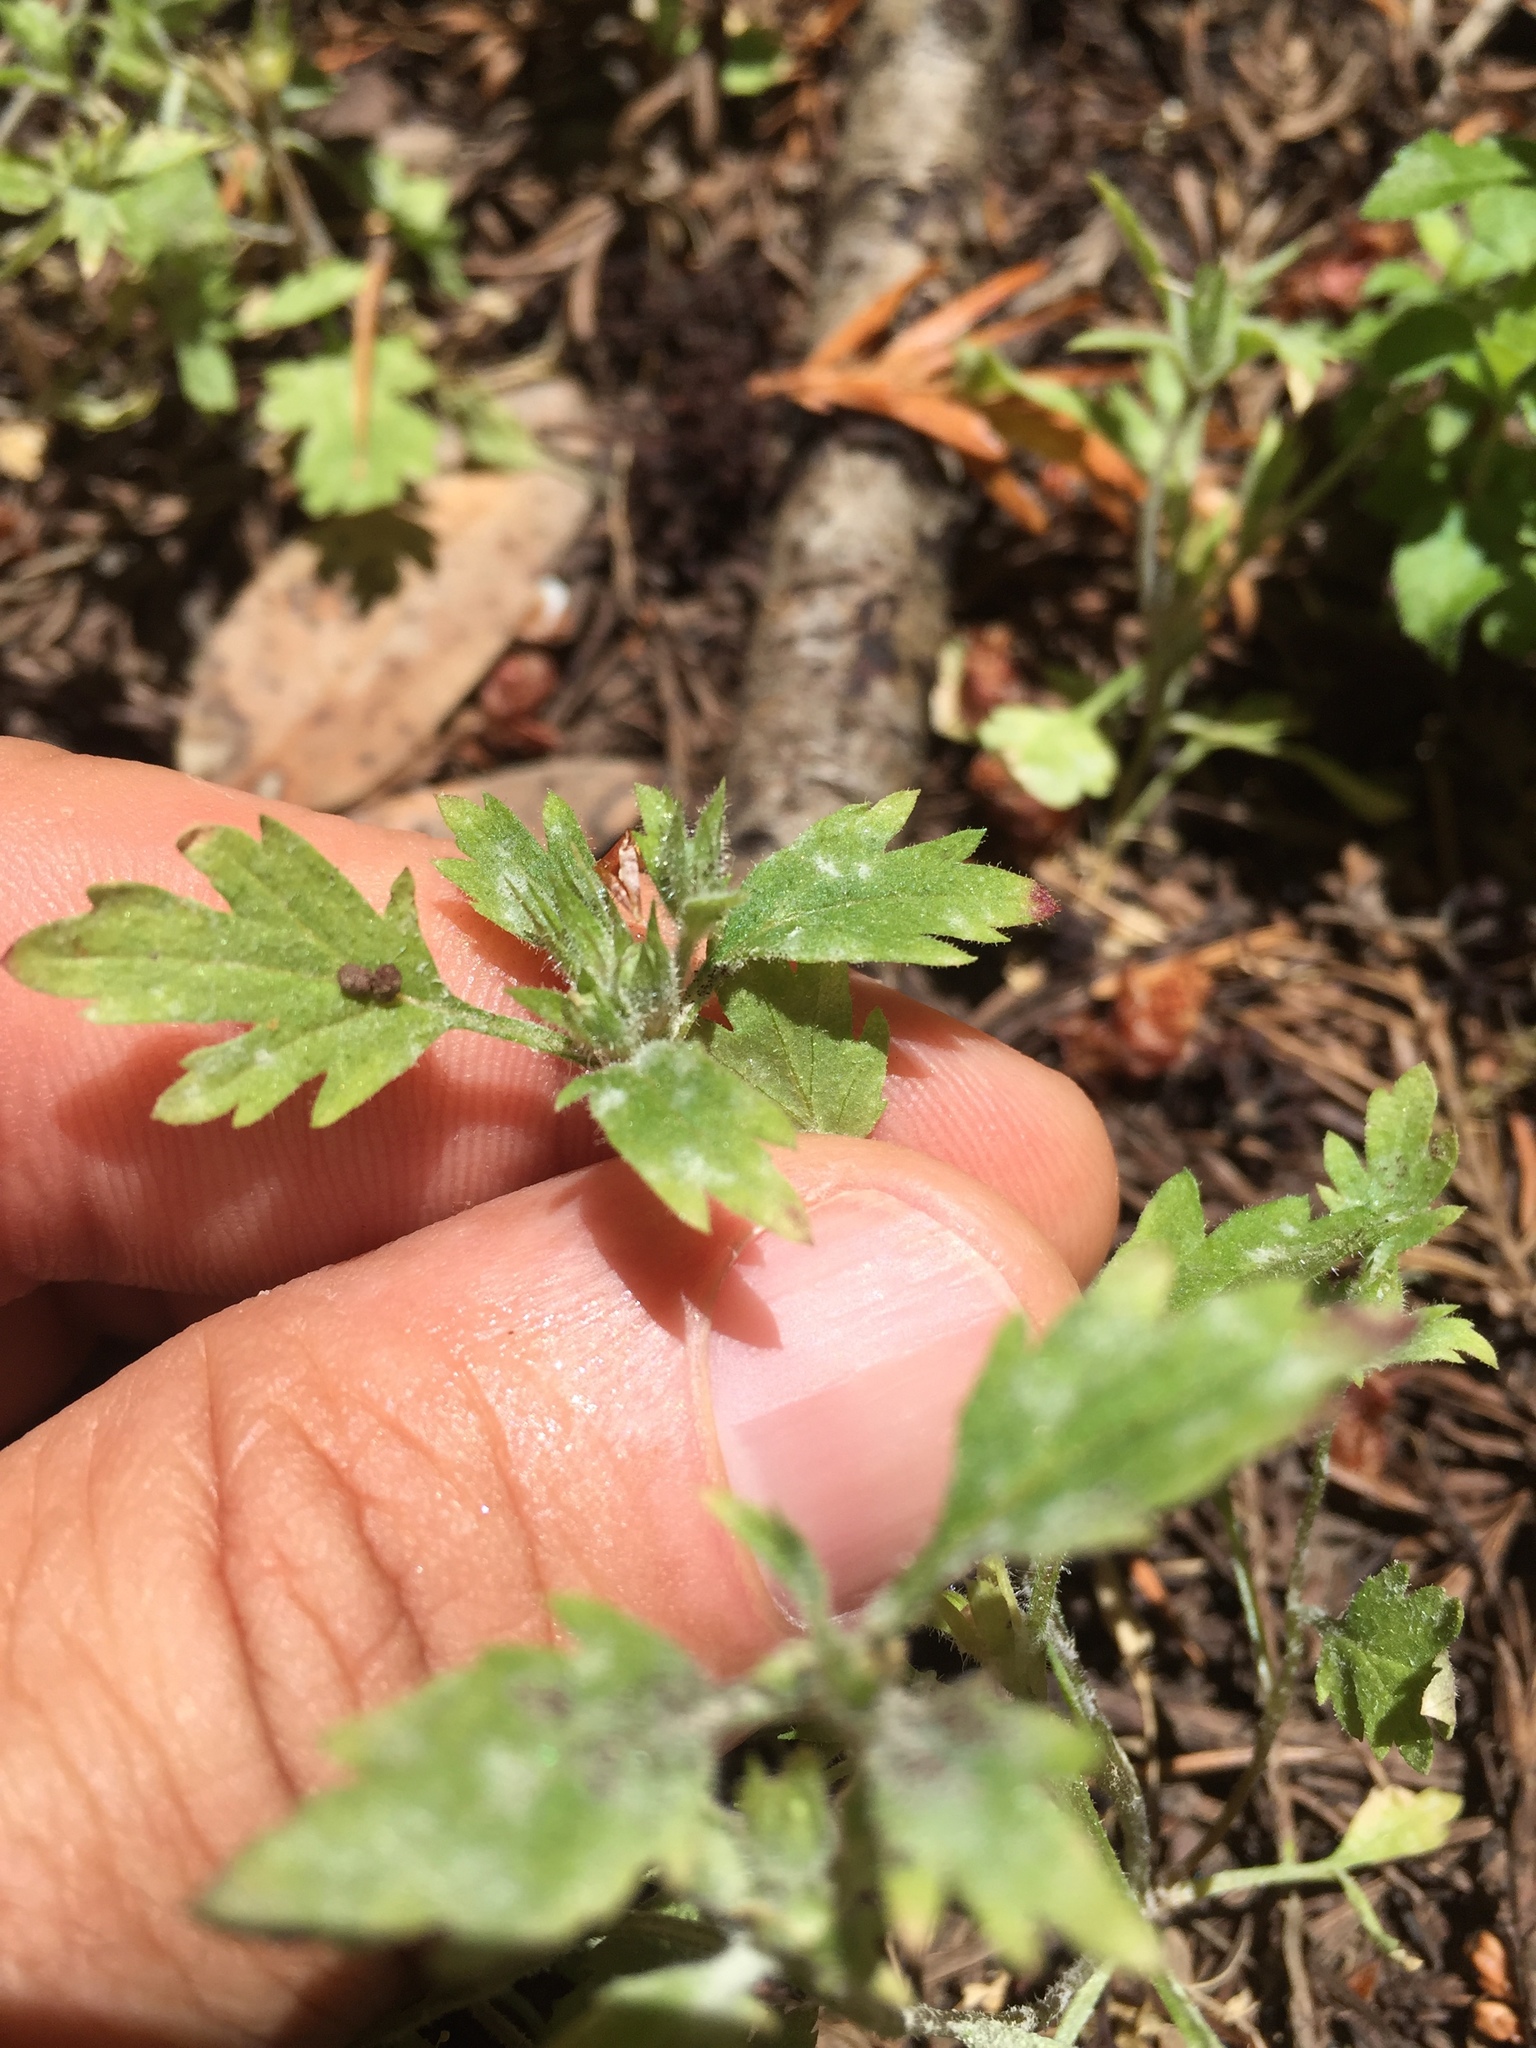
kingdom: Plantae
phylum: Tracheophyta
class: Magnoliopsida
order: Ericales
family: Polemoniaceae
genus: Collomia
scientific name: Collomia heterophylla
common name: Variable-leaved collomia
